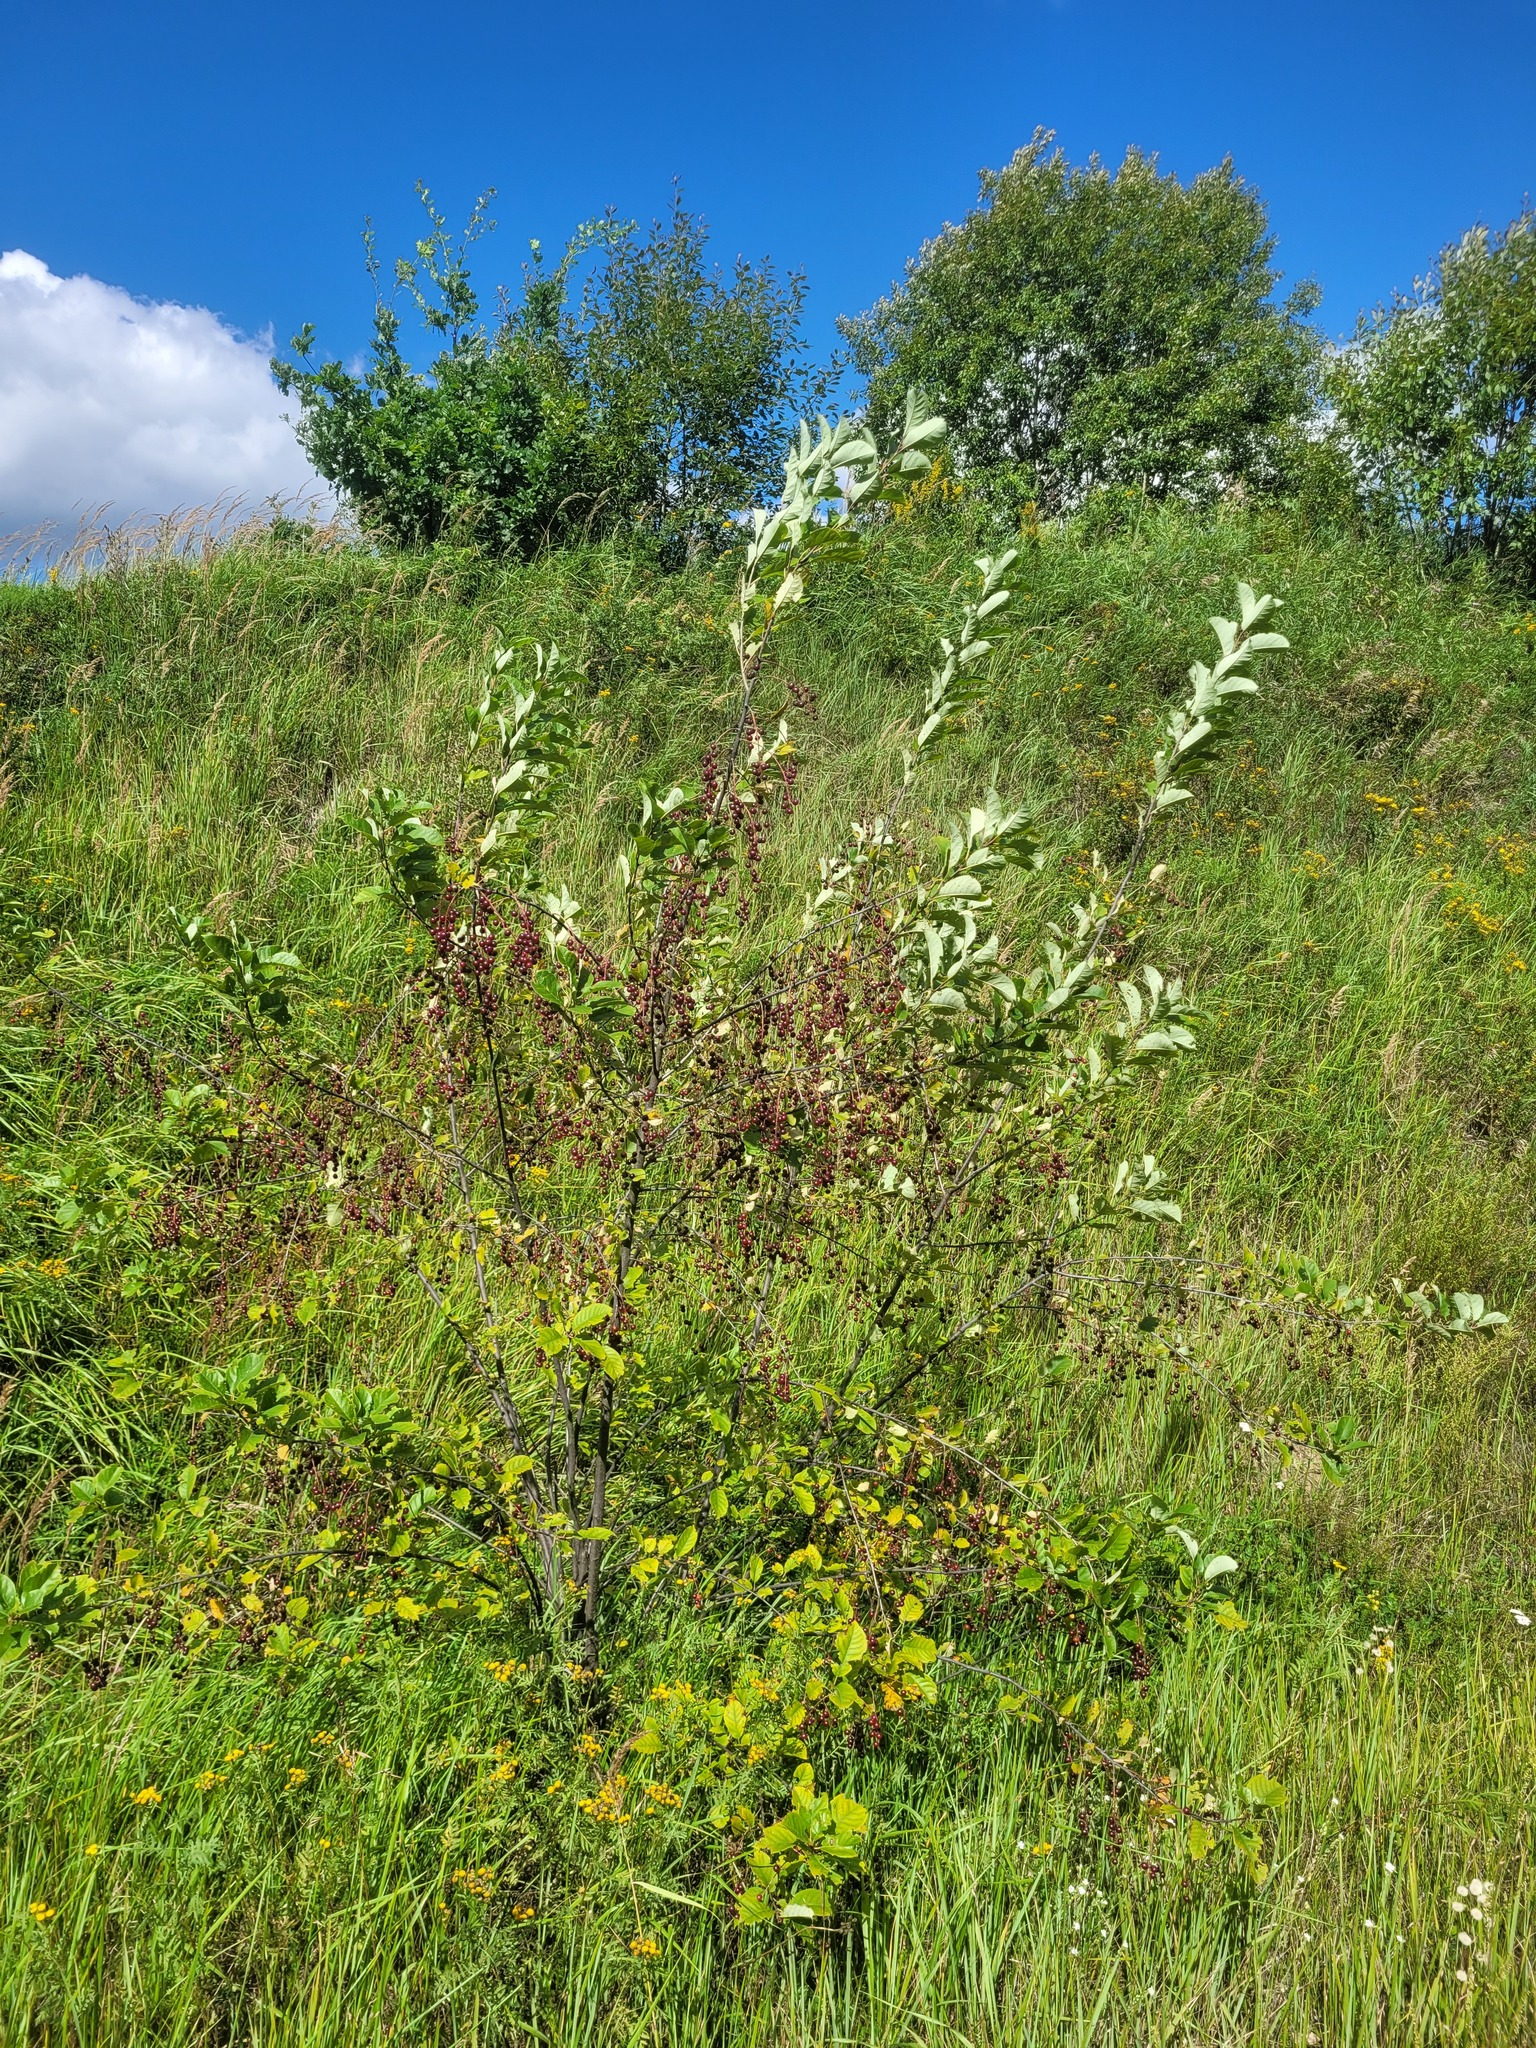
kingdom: Plantae
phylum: Tracheophyta
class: Magnoliopsida
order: Rosales
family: Rosaceae
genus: Prunus
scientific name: Prunus virginiana
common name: Chokecherry
